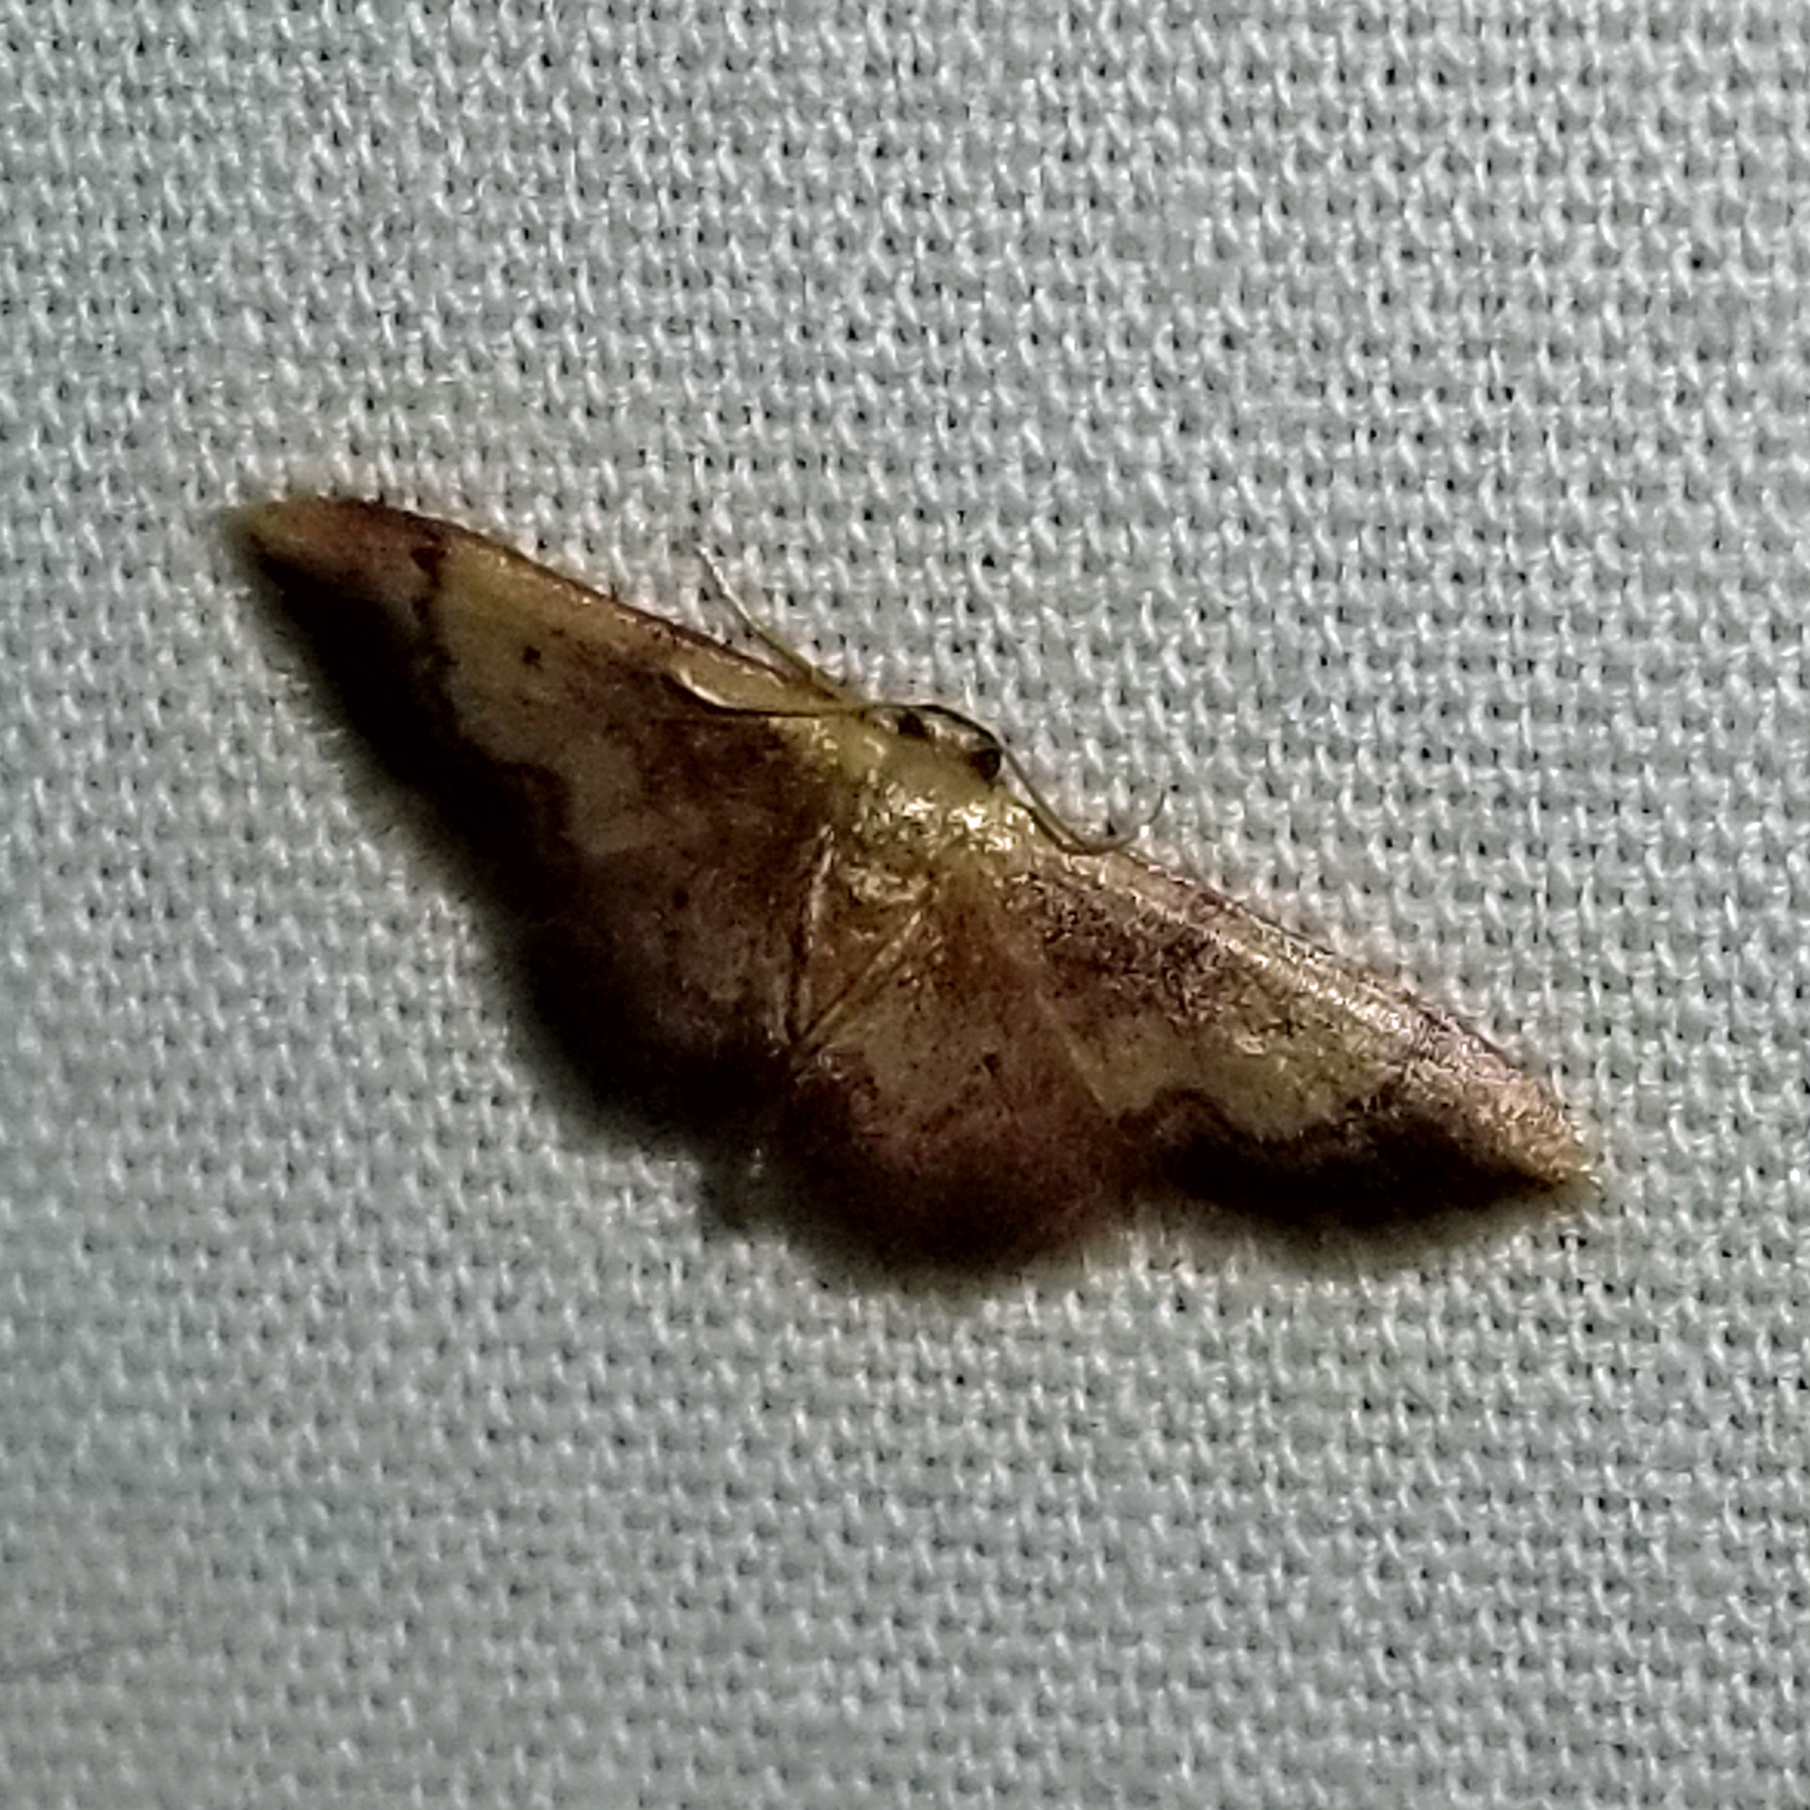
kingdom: Animalia
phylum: Arthropoda
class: Insecta
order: Lepidoptera
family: Geometridae
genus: Idaea
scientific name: Idaea demissaria
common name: Red-bordered wave
